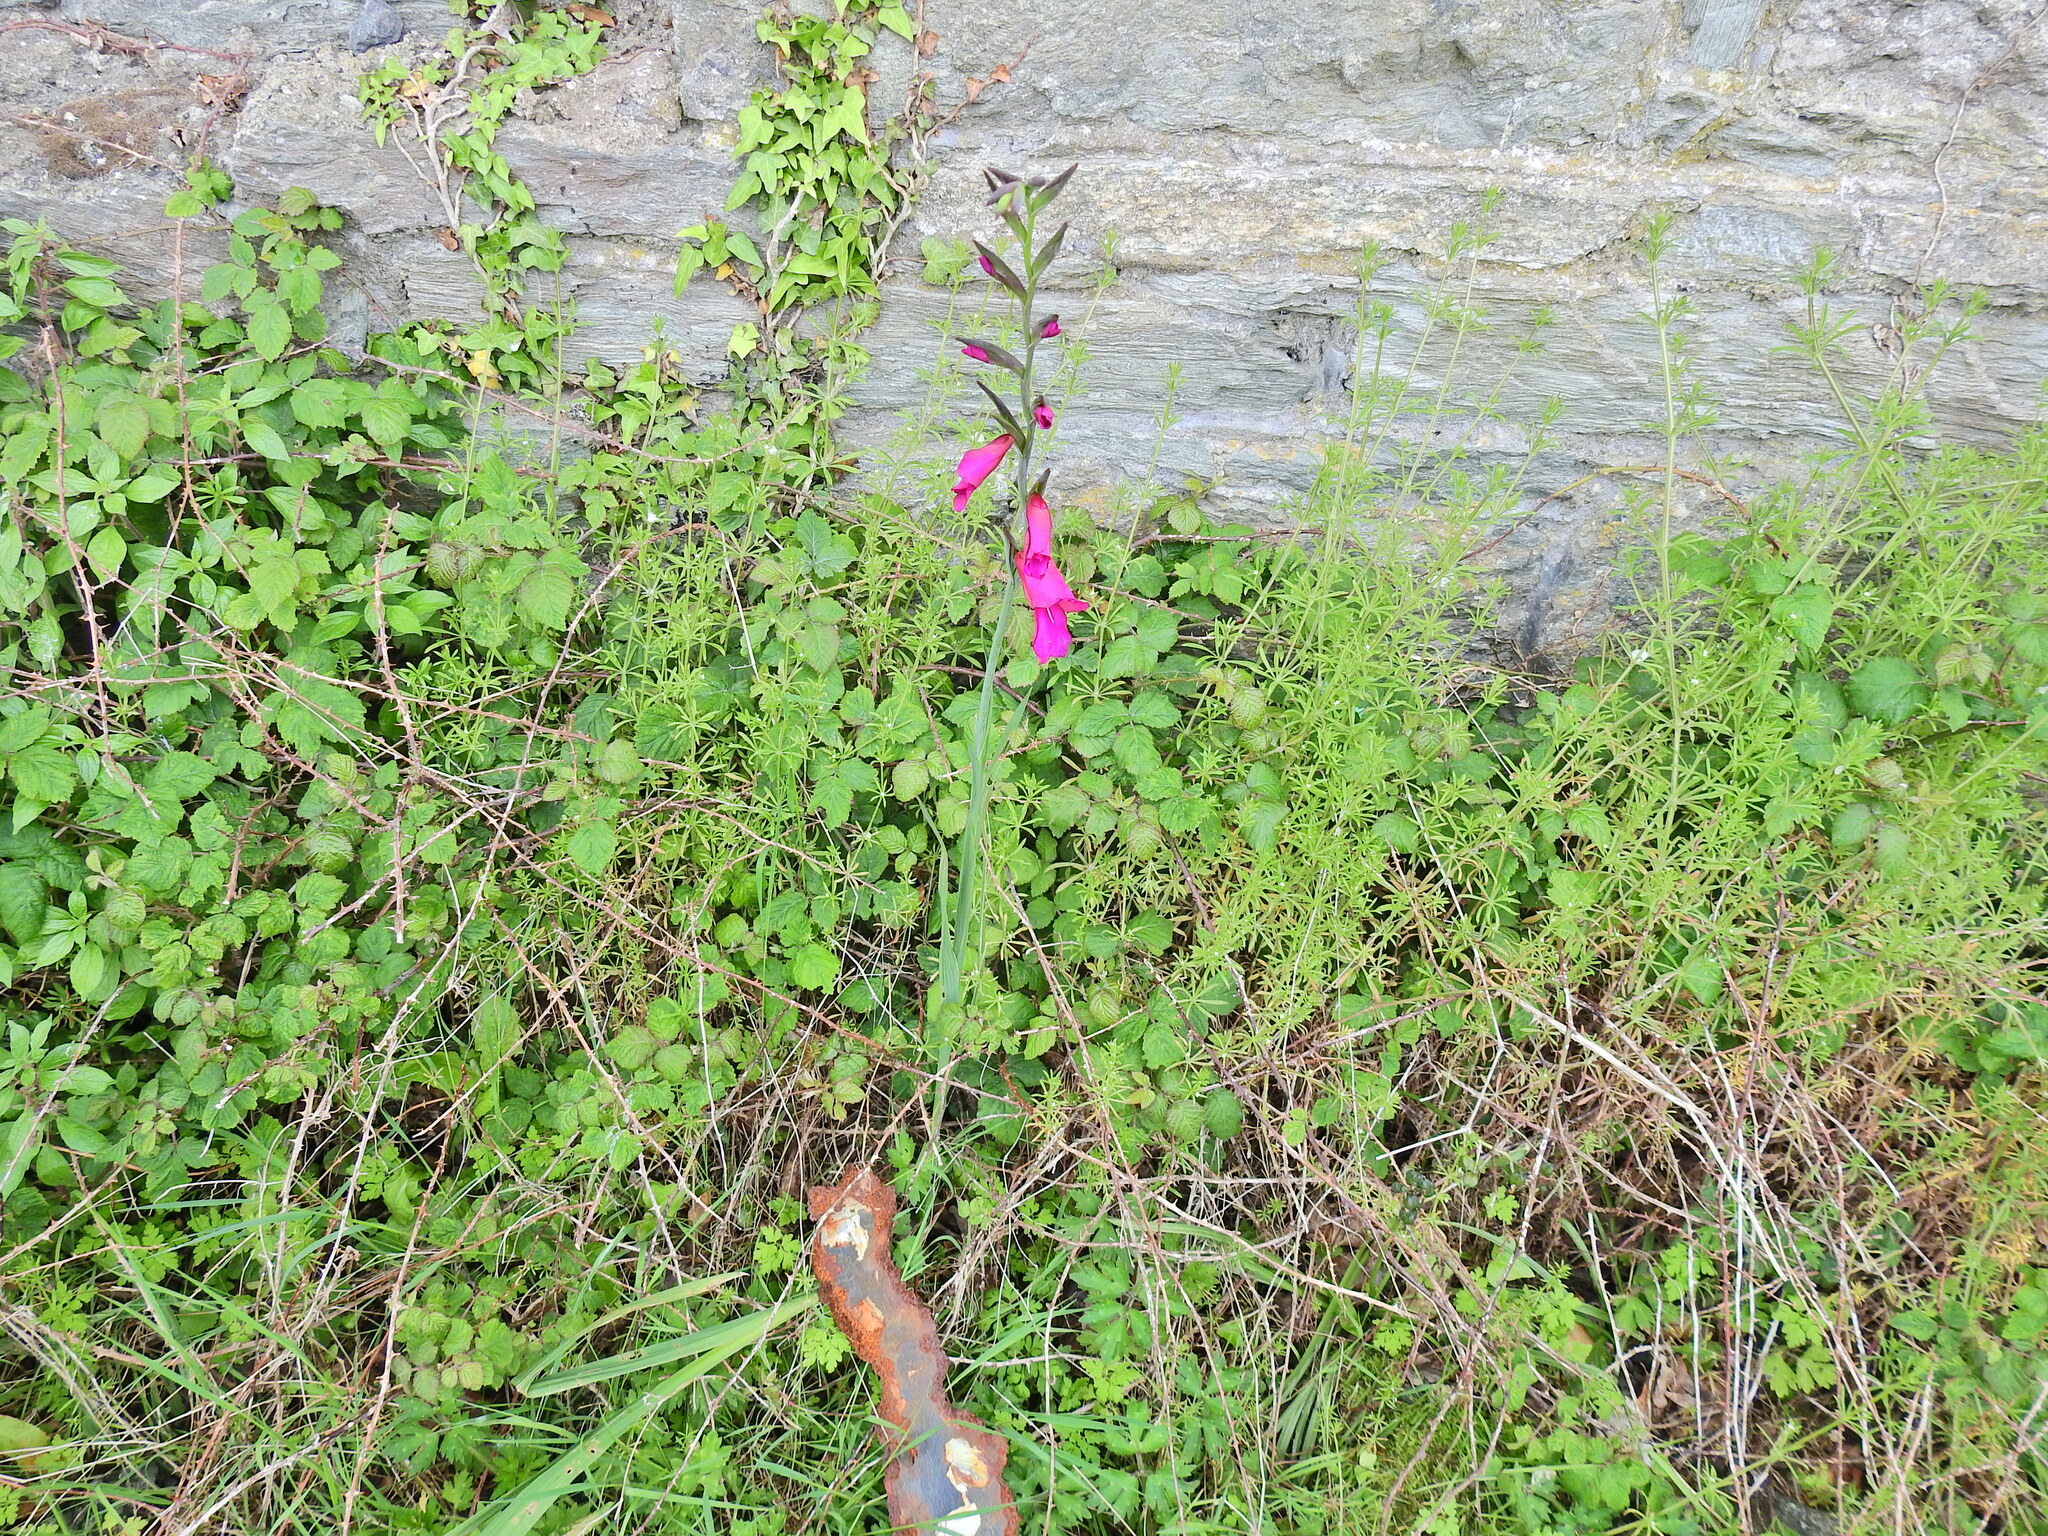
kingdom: Plantae
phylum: Tracheophyta
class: Liliopsida
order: Asparagales
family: Iridaceae
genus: Gladiolus
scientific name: Gladiolus byzantinus
